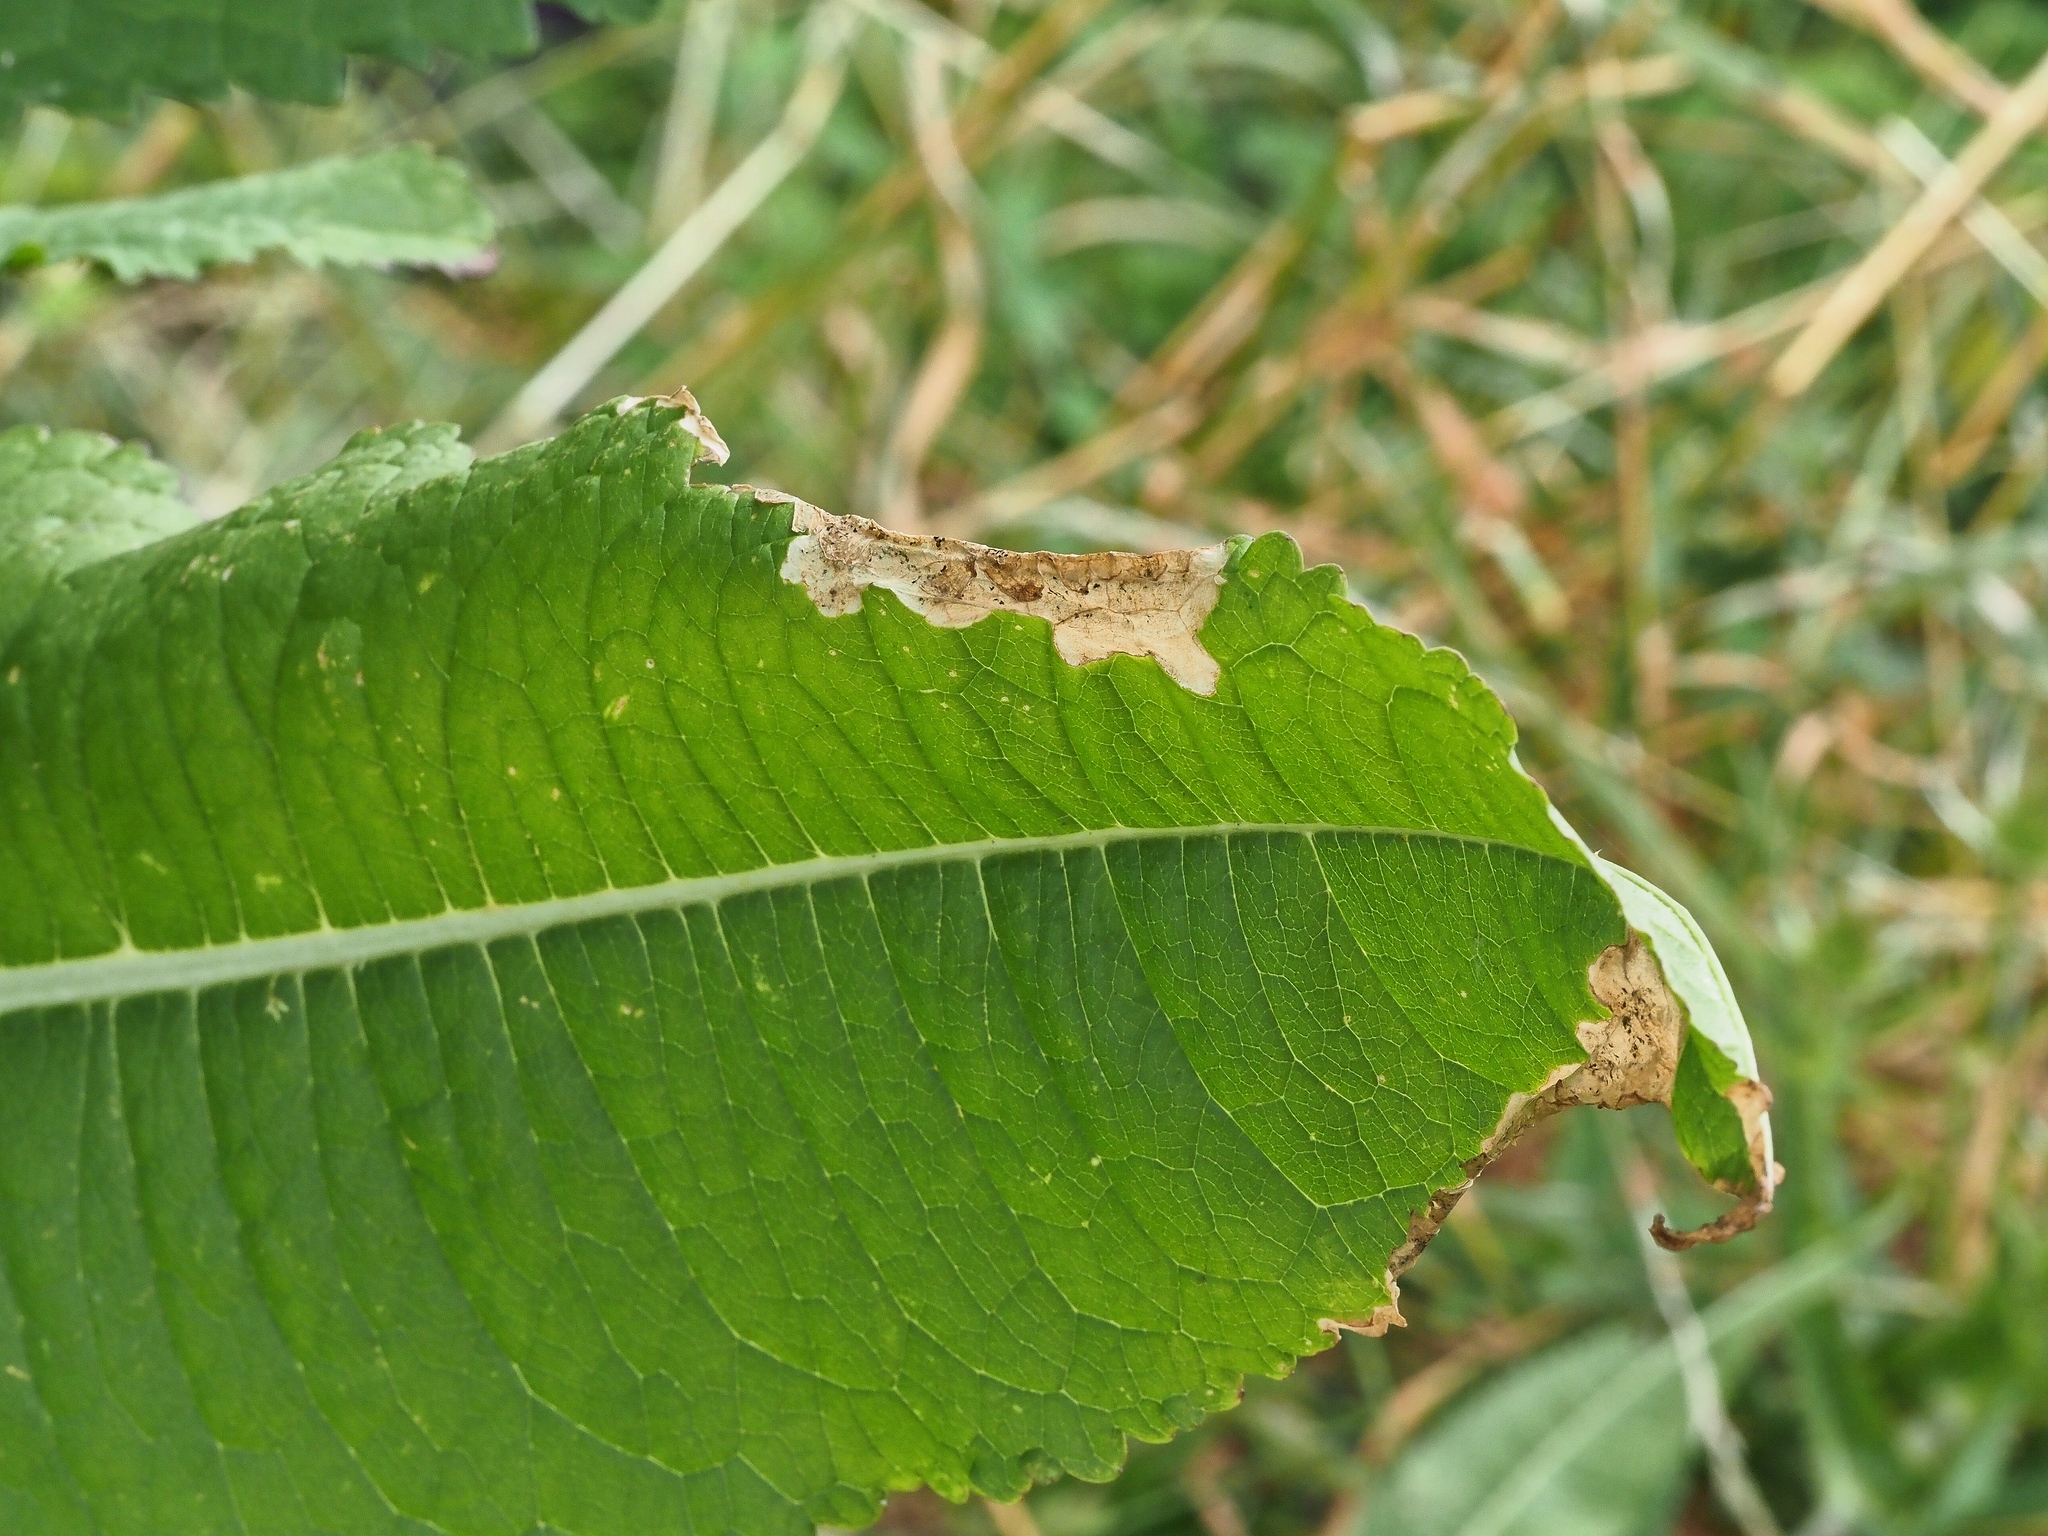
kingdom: Animalia
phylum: Arthropoda
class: Insecta
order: Diptera
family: Agromyzidae
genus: Agromyza
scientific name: Agromyza dipsaci
